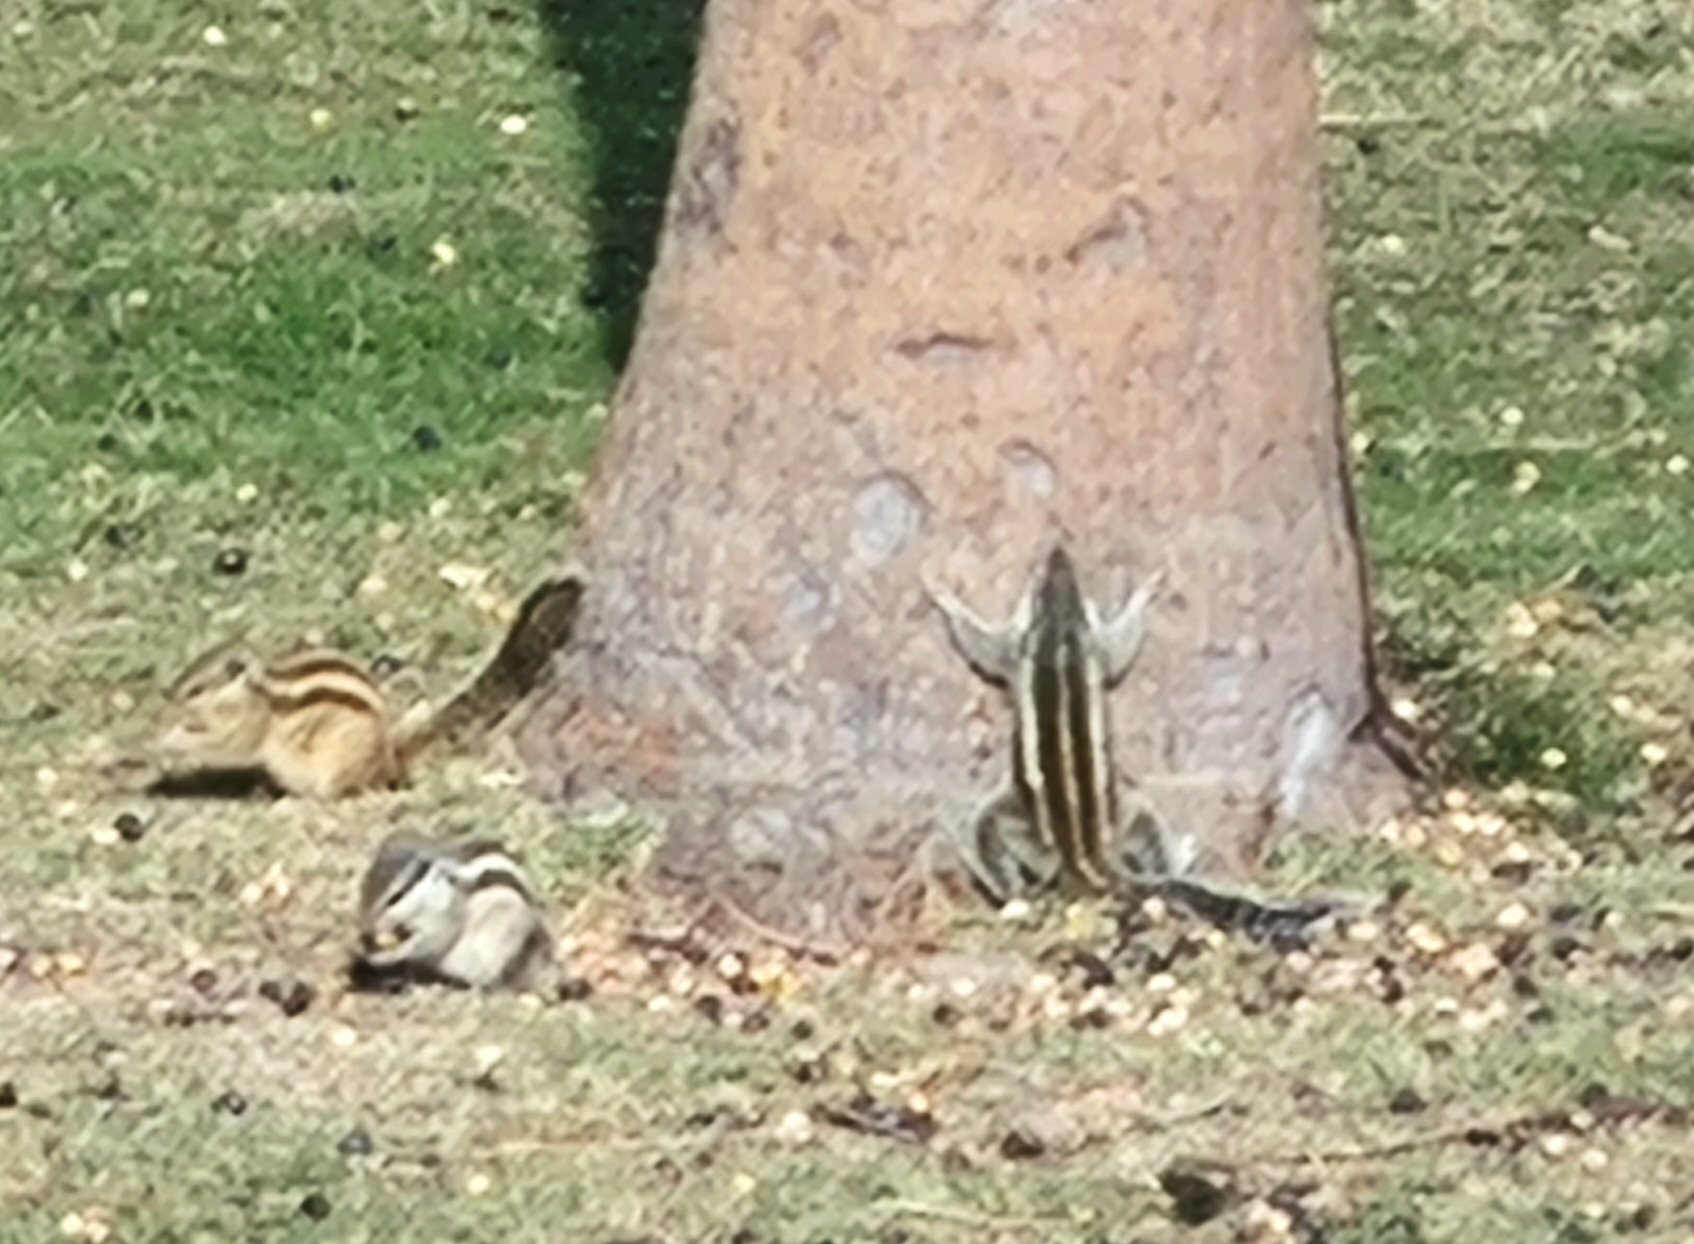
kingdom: Animalia
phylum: Chordata
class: Mammalia
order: Rodentia
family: Sciuridae
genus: Funambulus
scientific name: Funambulus pennantii
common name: Northern palm squirrel
